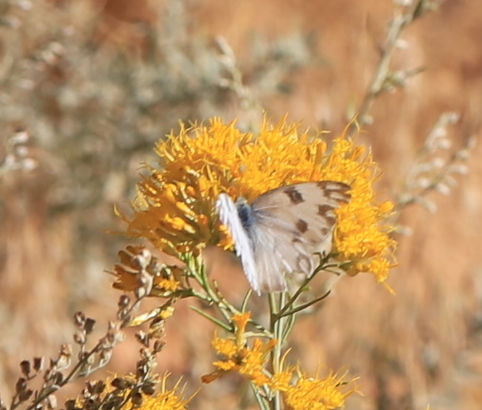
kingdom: Animalia
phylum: Arthropoda
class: Insecta
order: Lepidoptera
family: Pieridae
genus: Pontia
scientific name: Pontia protodice
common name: Checkered white
